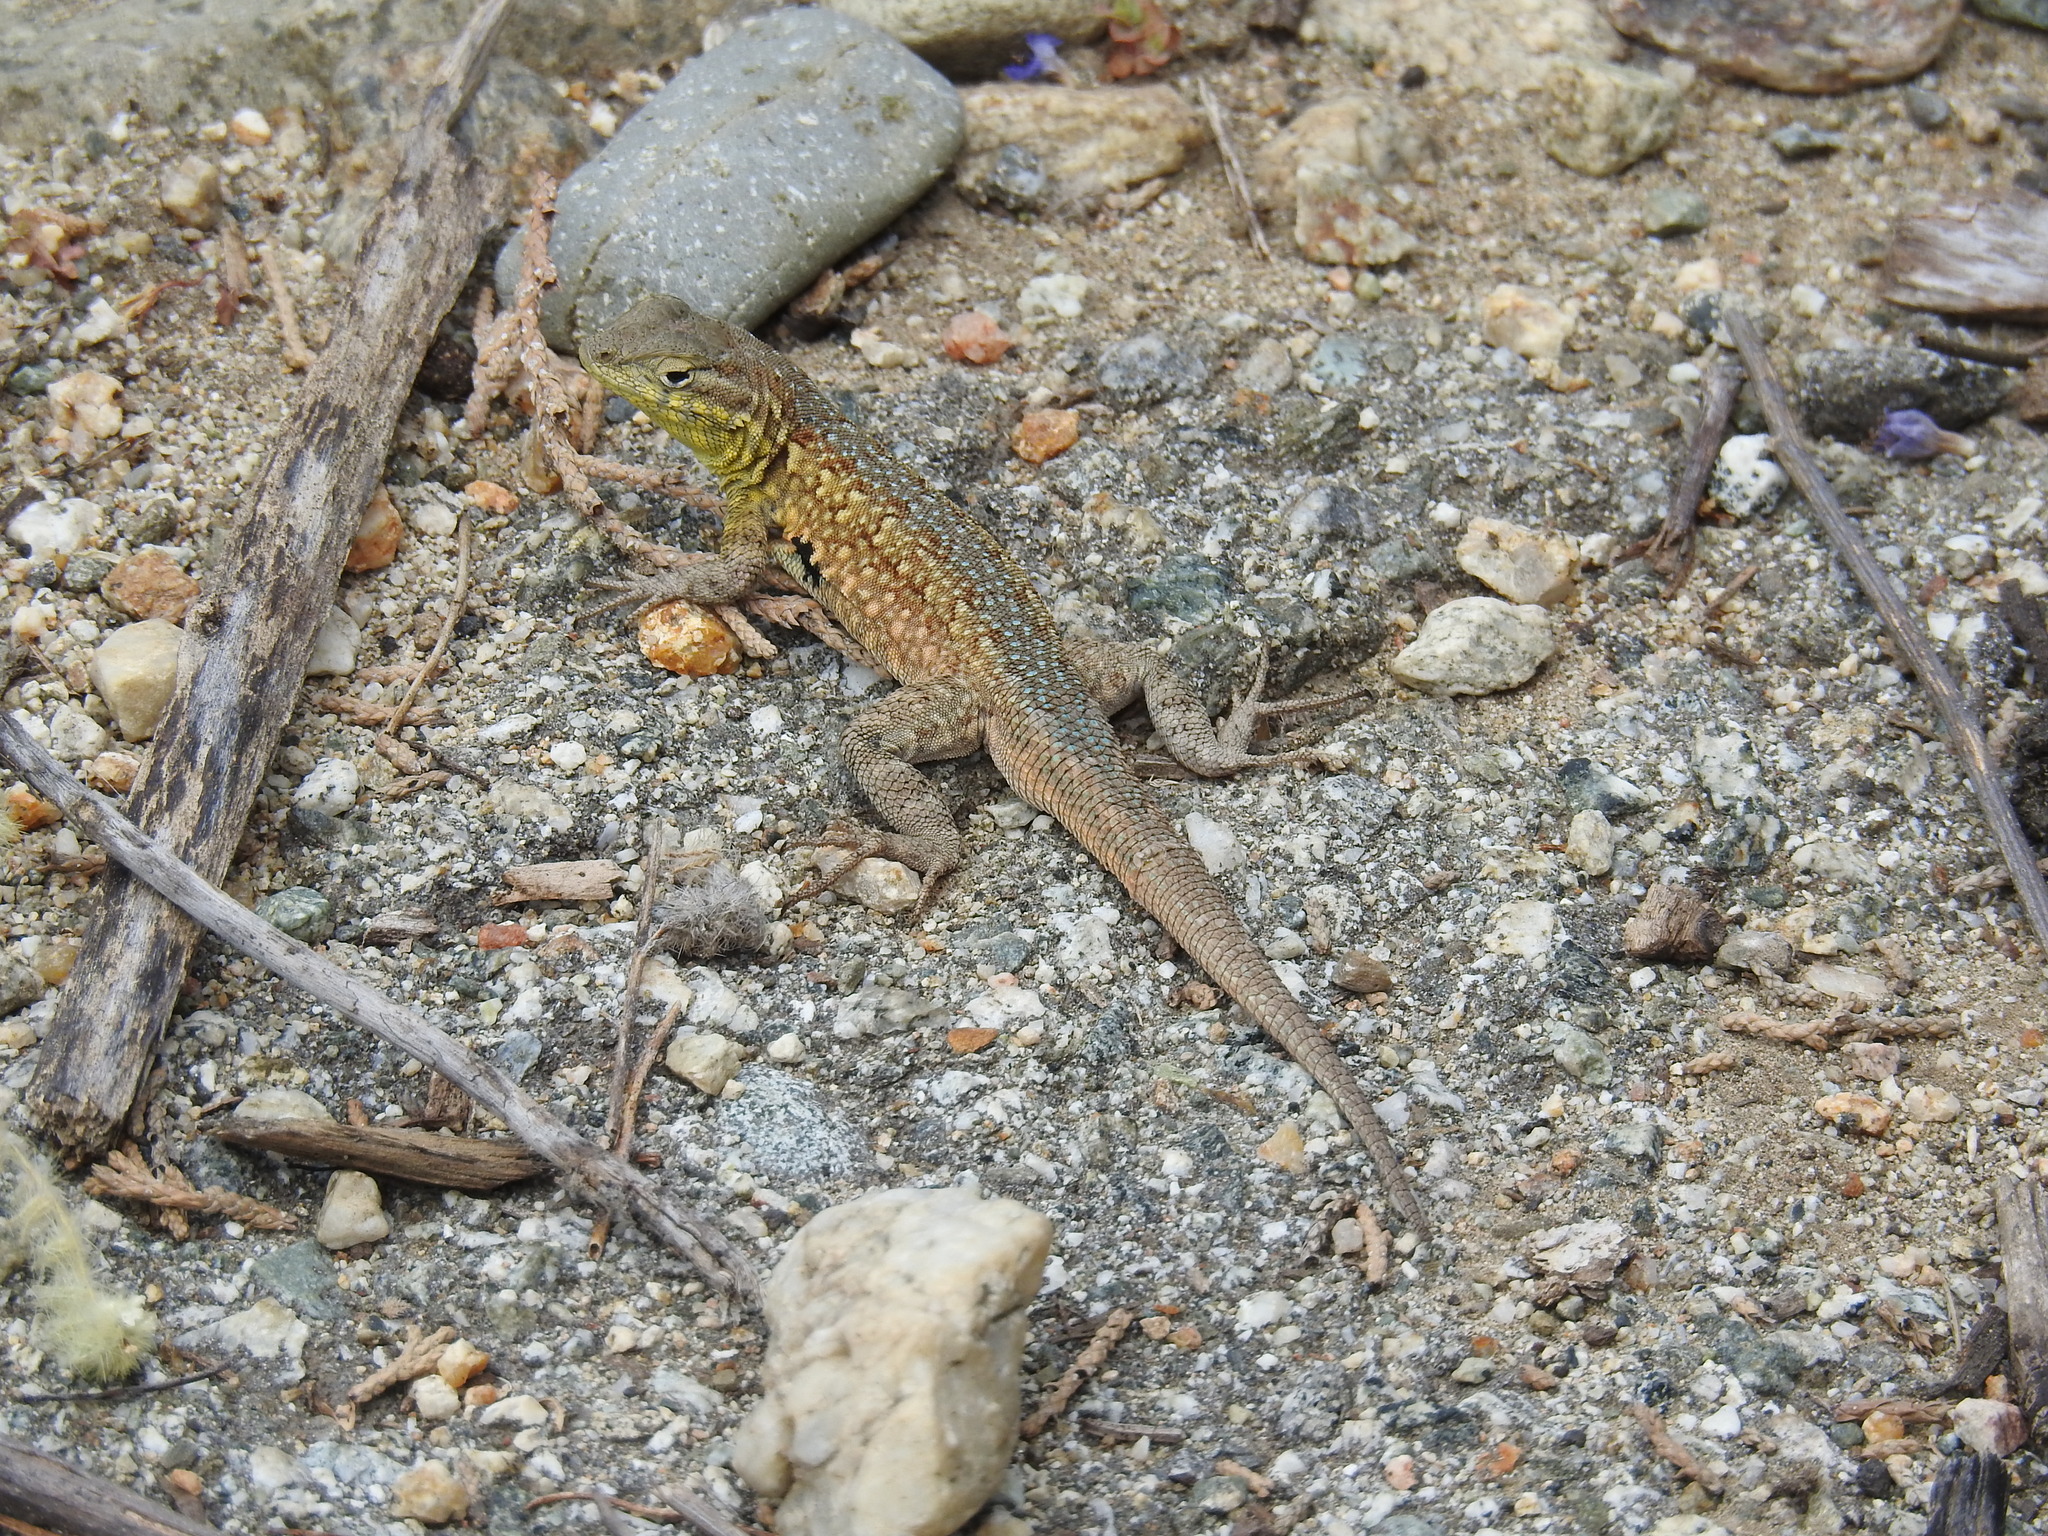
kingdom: Animalia
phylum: Chordata
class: Squamata
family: Phrynosomatidae
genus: Uta
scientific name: Uta stansburiana
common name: Side-blotched lizard
